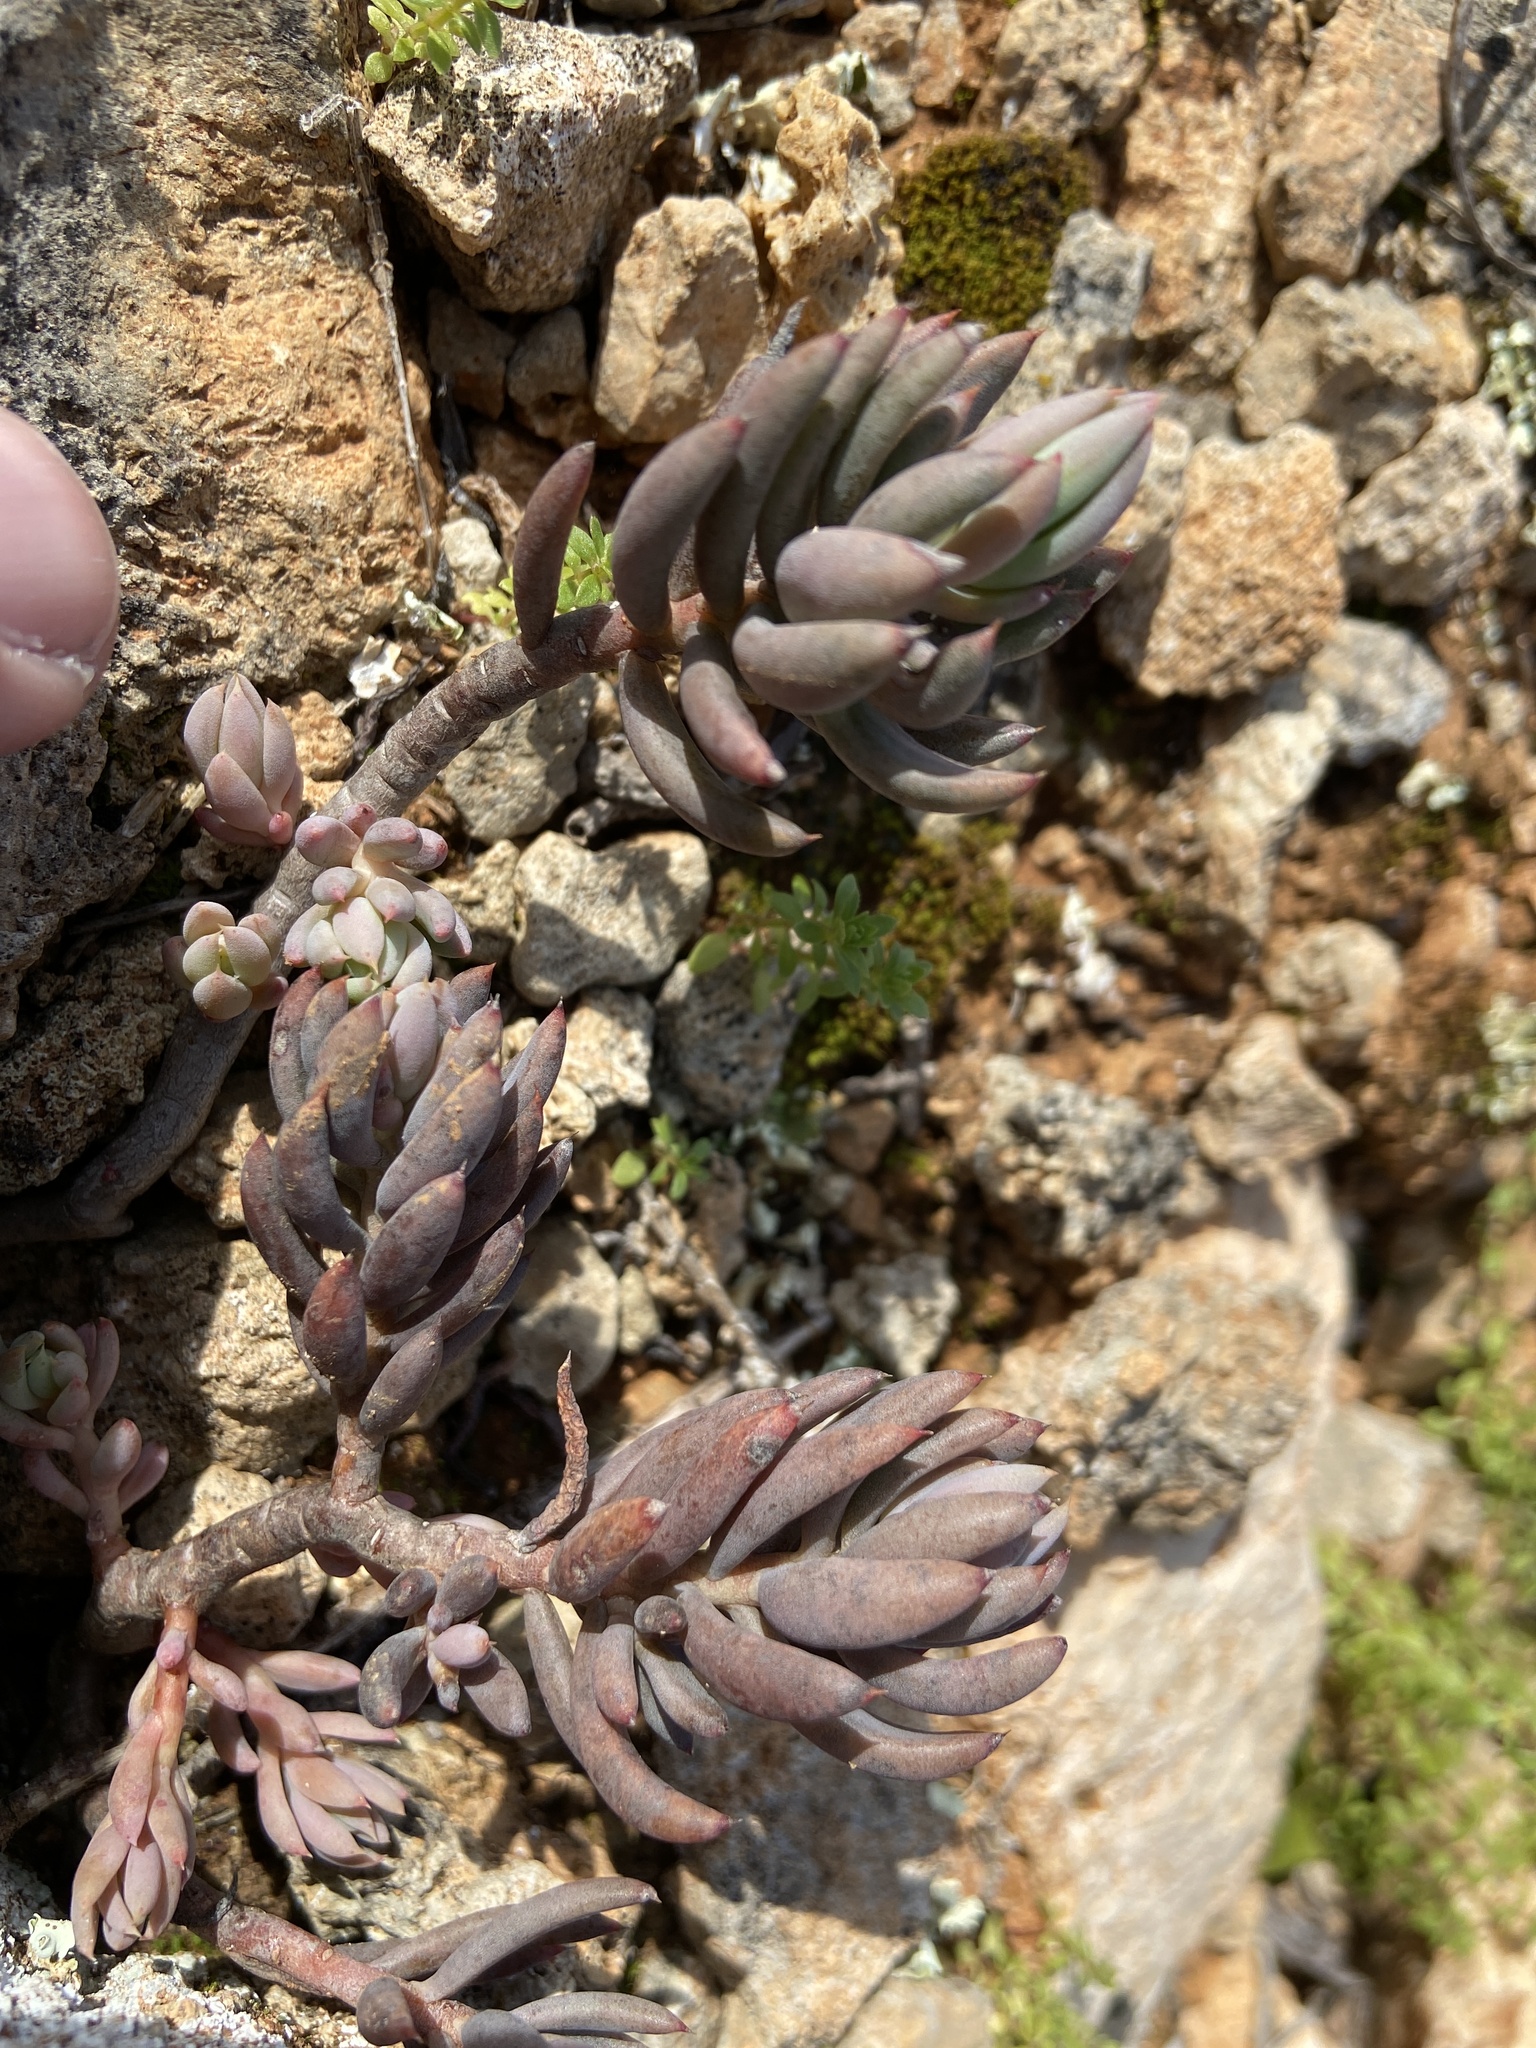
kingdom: Plantae
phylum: Tracheophyta
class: Magnoliopsida
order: Saxifragales
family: Crassulaceae
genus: Petrosedum
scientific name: Petrosedum sediforme
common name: Pale stonecrop
